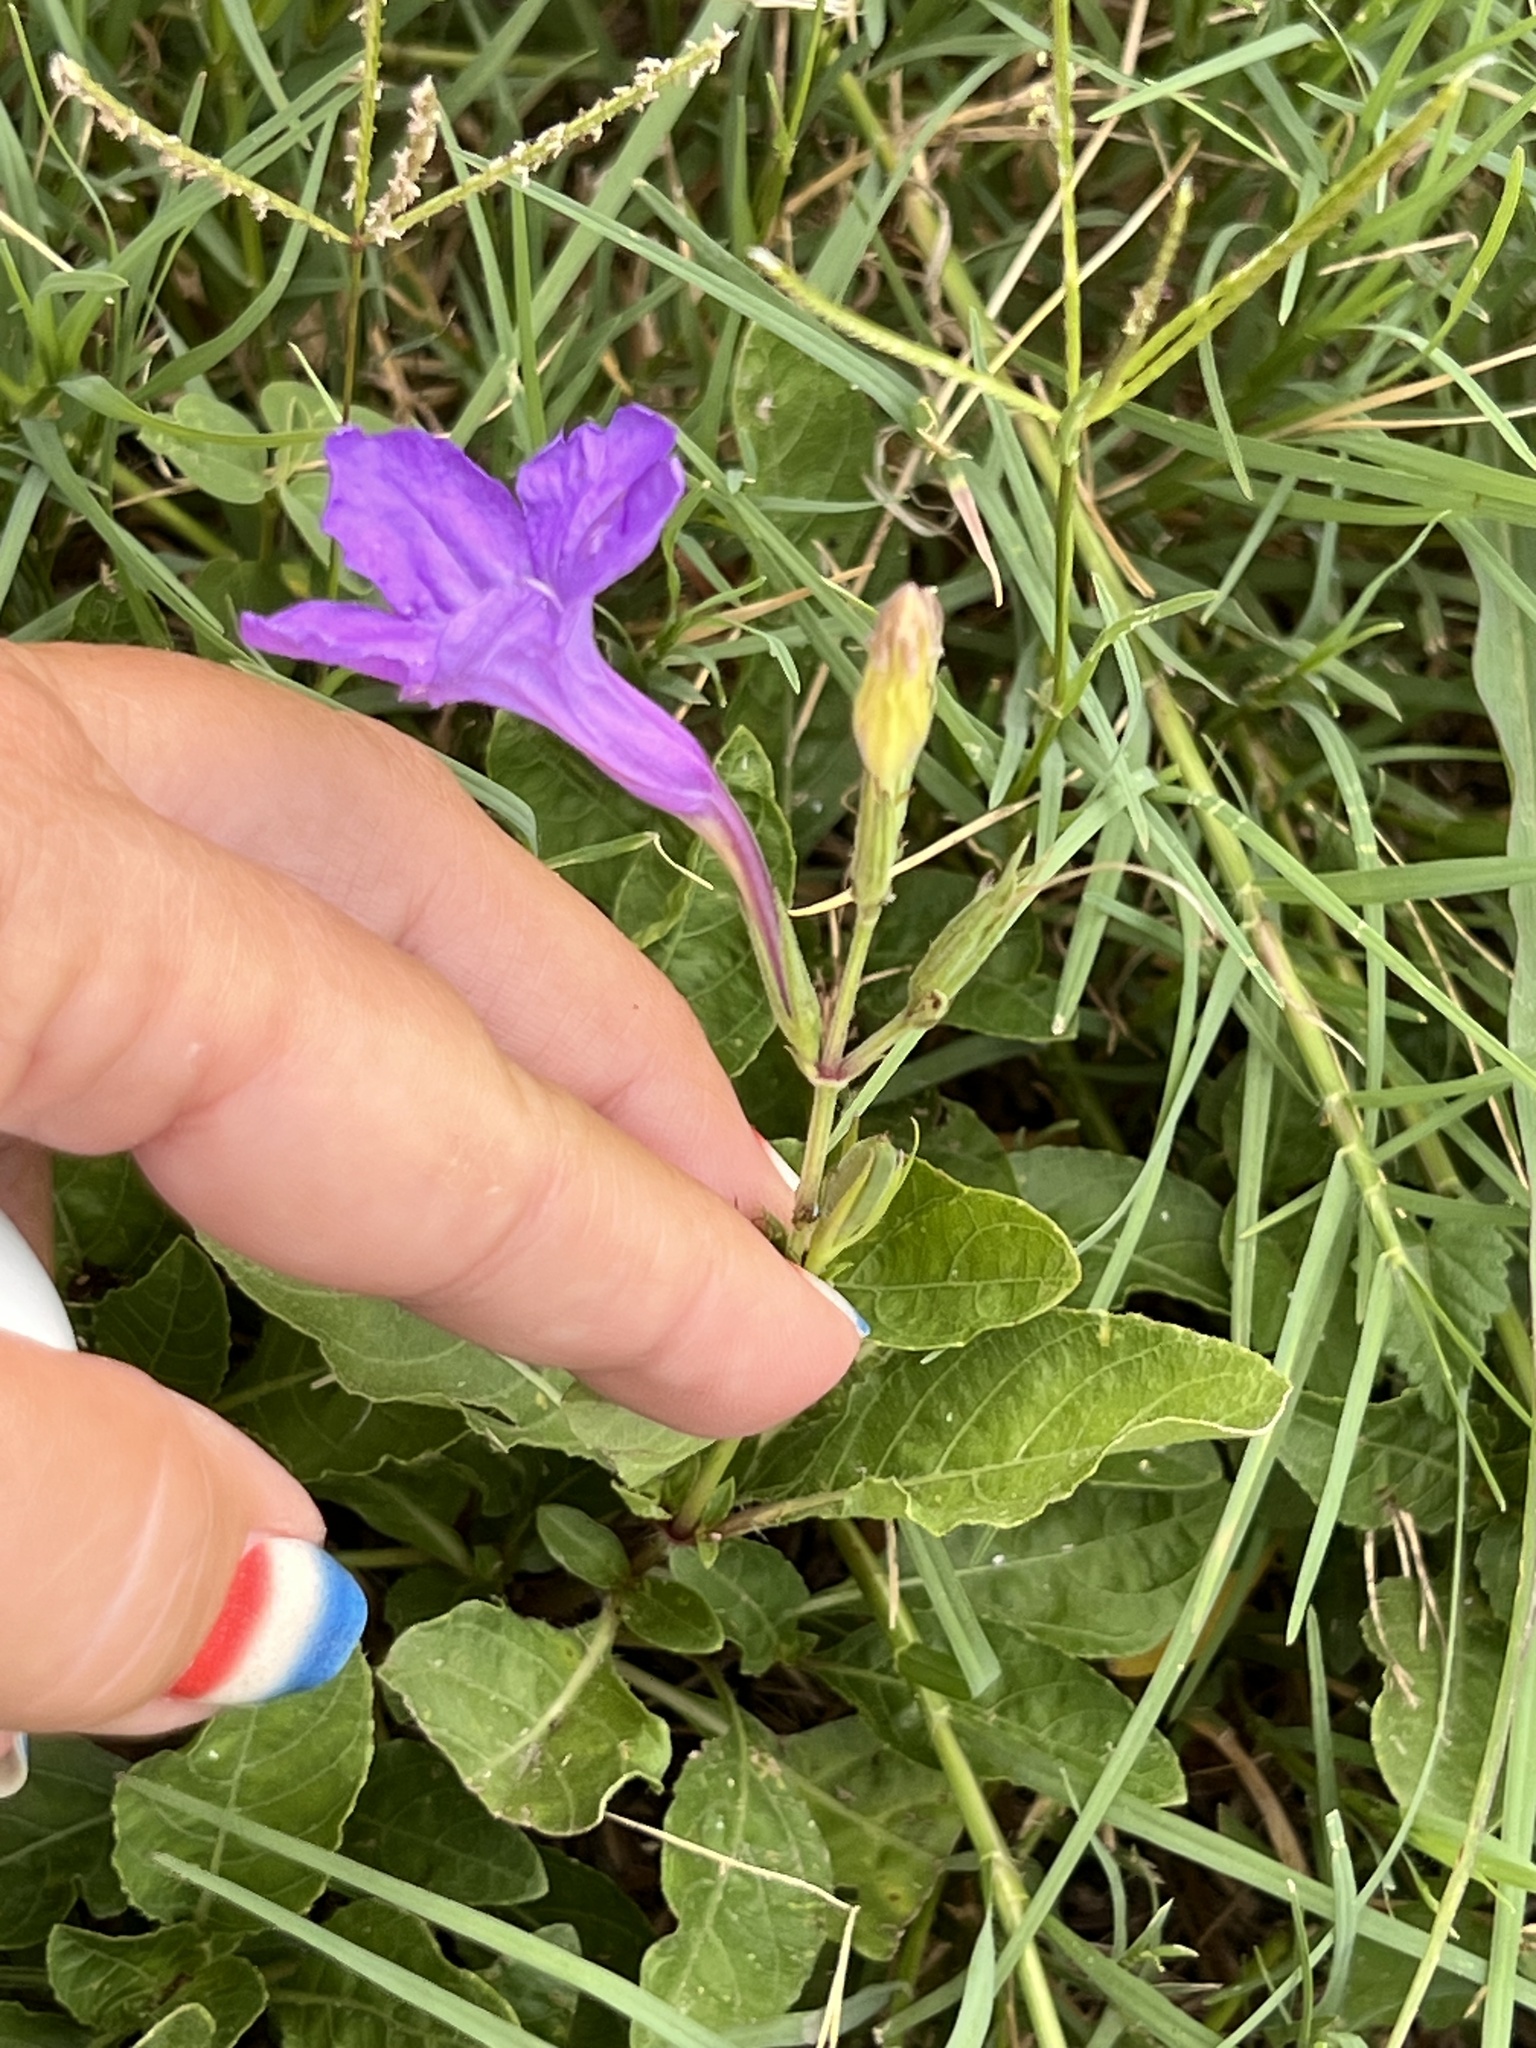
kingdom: Plantae
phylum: Tracheophyta
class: Magnoliopsida
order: Lamiales
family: Acanthaceae
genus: Ruellia
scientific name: Ruellia ciliatiflora
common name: Hairyflower wild petunia
